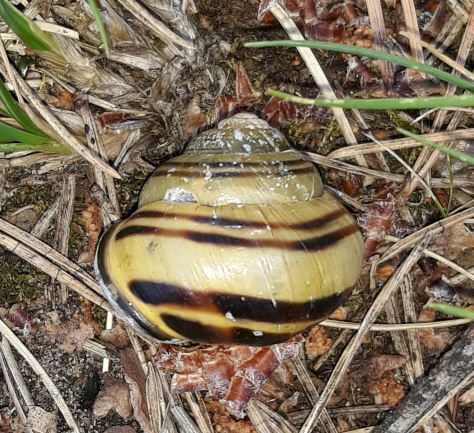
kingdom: Animalia
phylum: Mollusca
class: Gastropoda
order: Stylommatophora
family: Helicidae
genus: Cepaea
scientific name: Cepaea nemoralis
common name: Grovesnail
